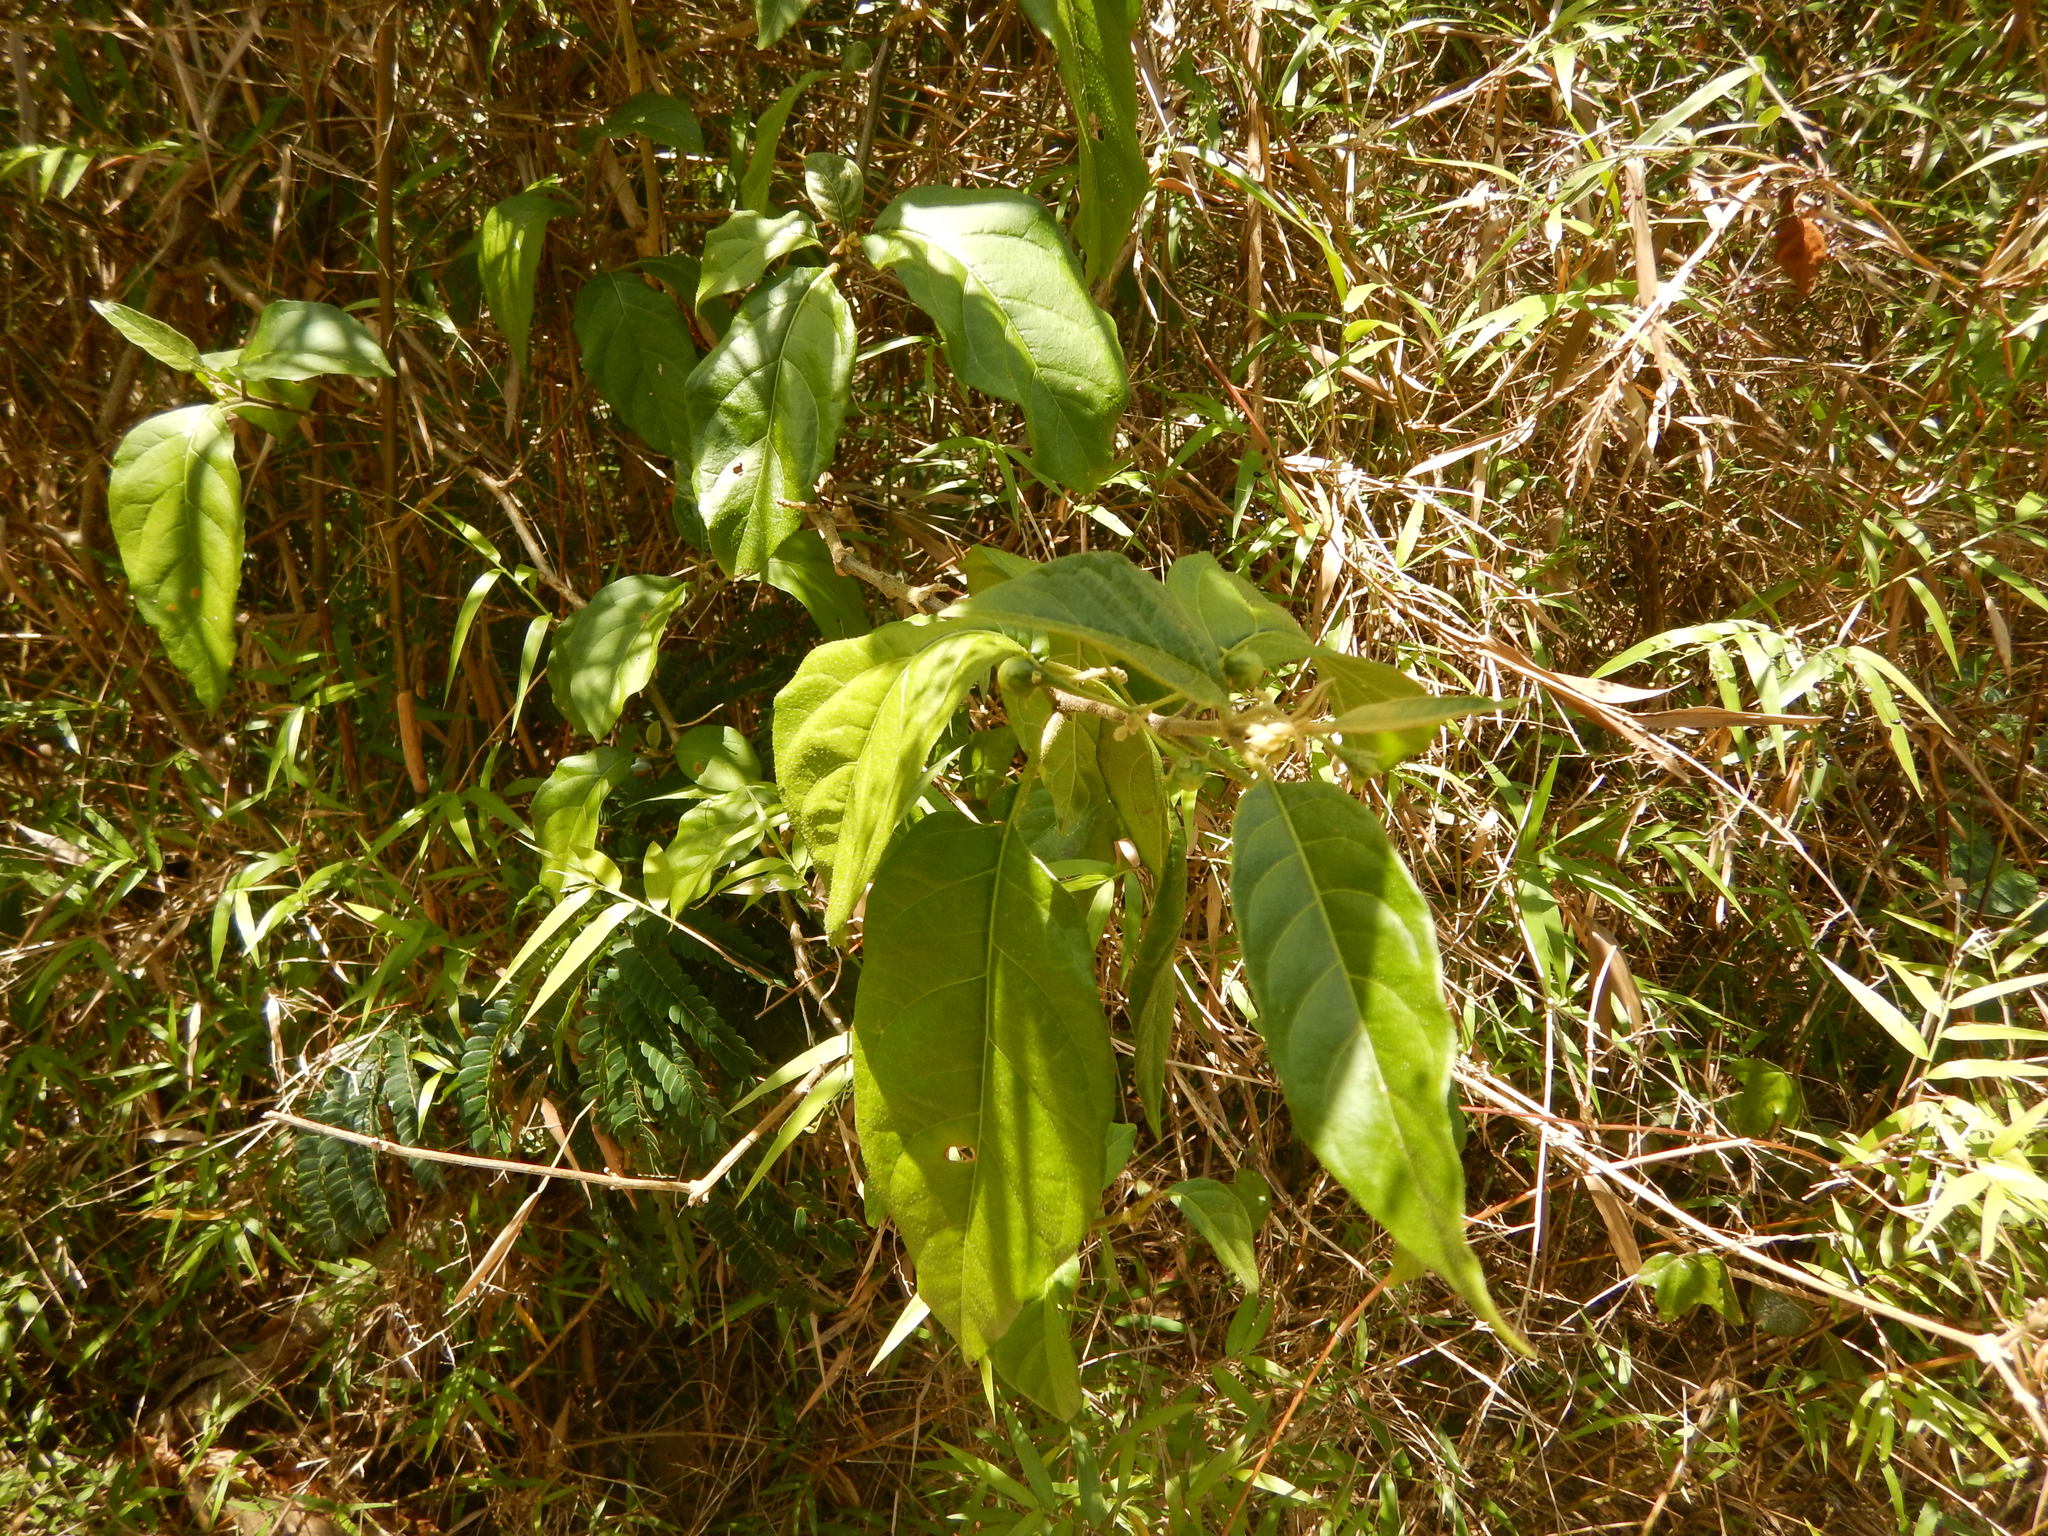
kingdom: Plantae
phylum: Tracheophyta
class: Liliopsida
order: Poales
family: Poaceae
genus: Lasiacis
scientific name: Lasiacis divaricata
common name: Smallcane
